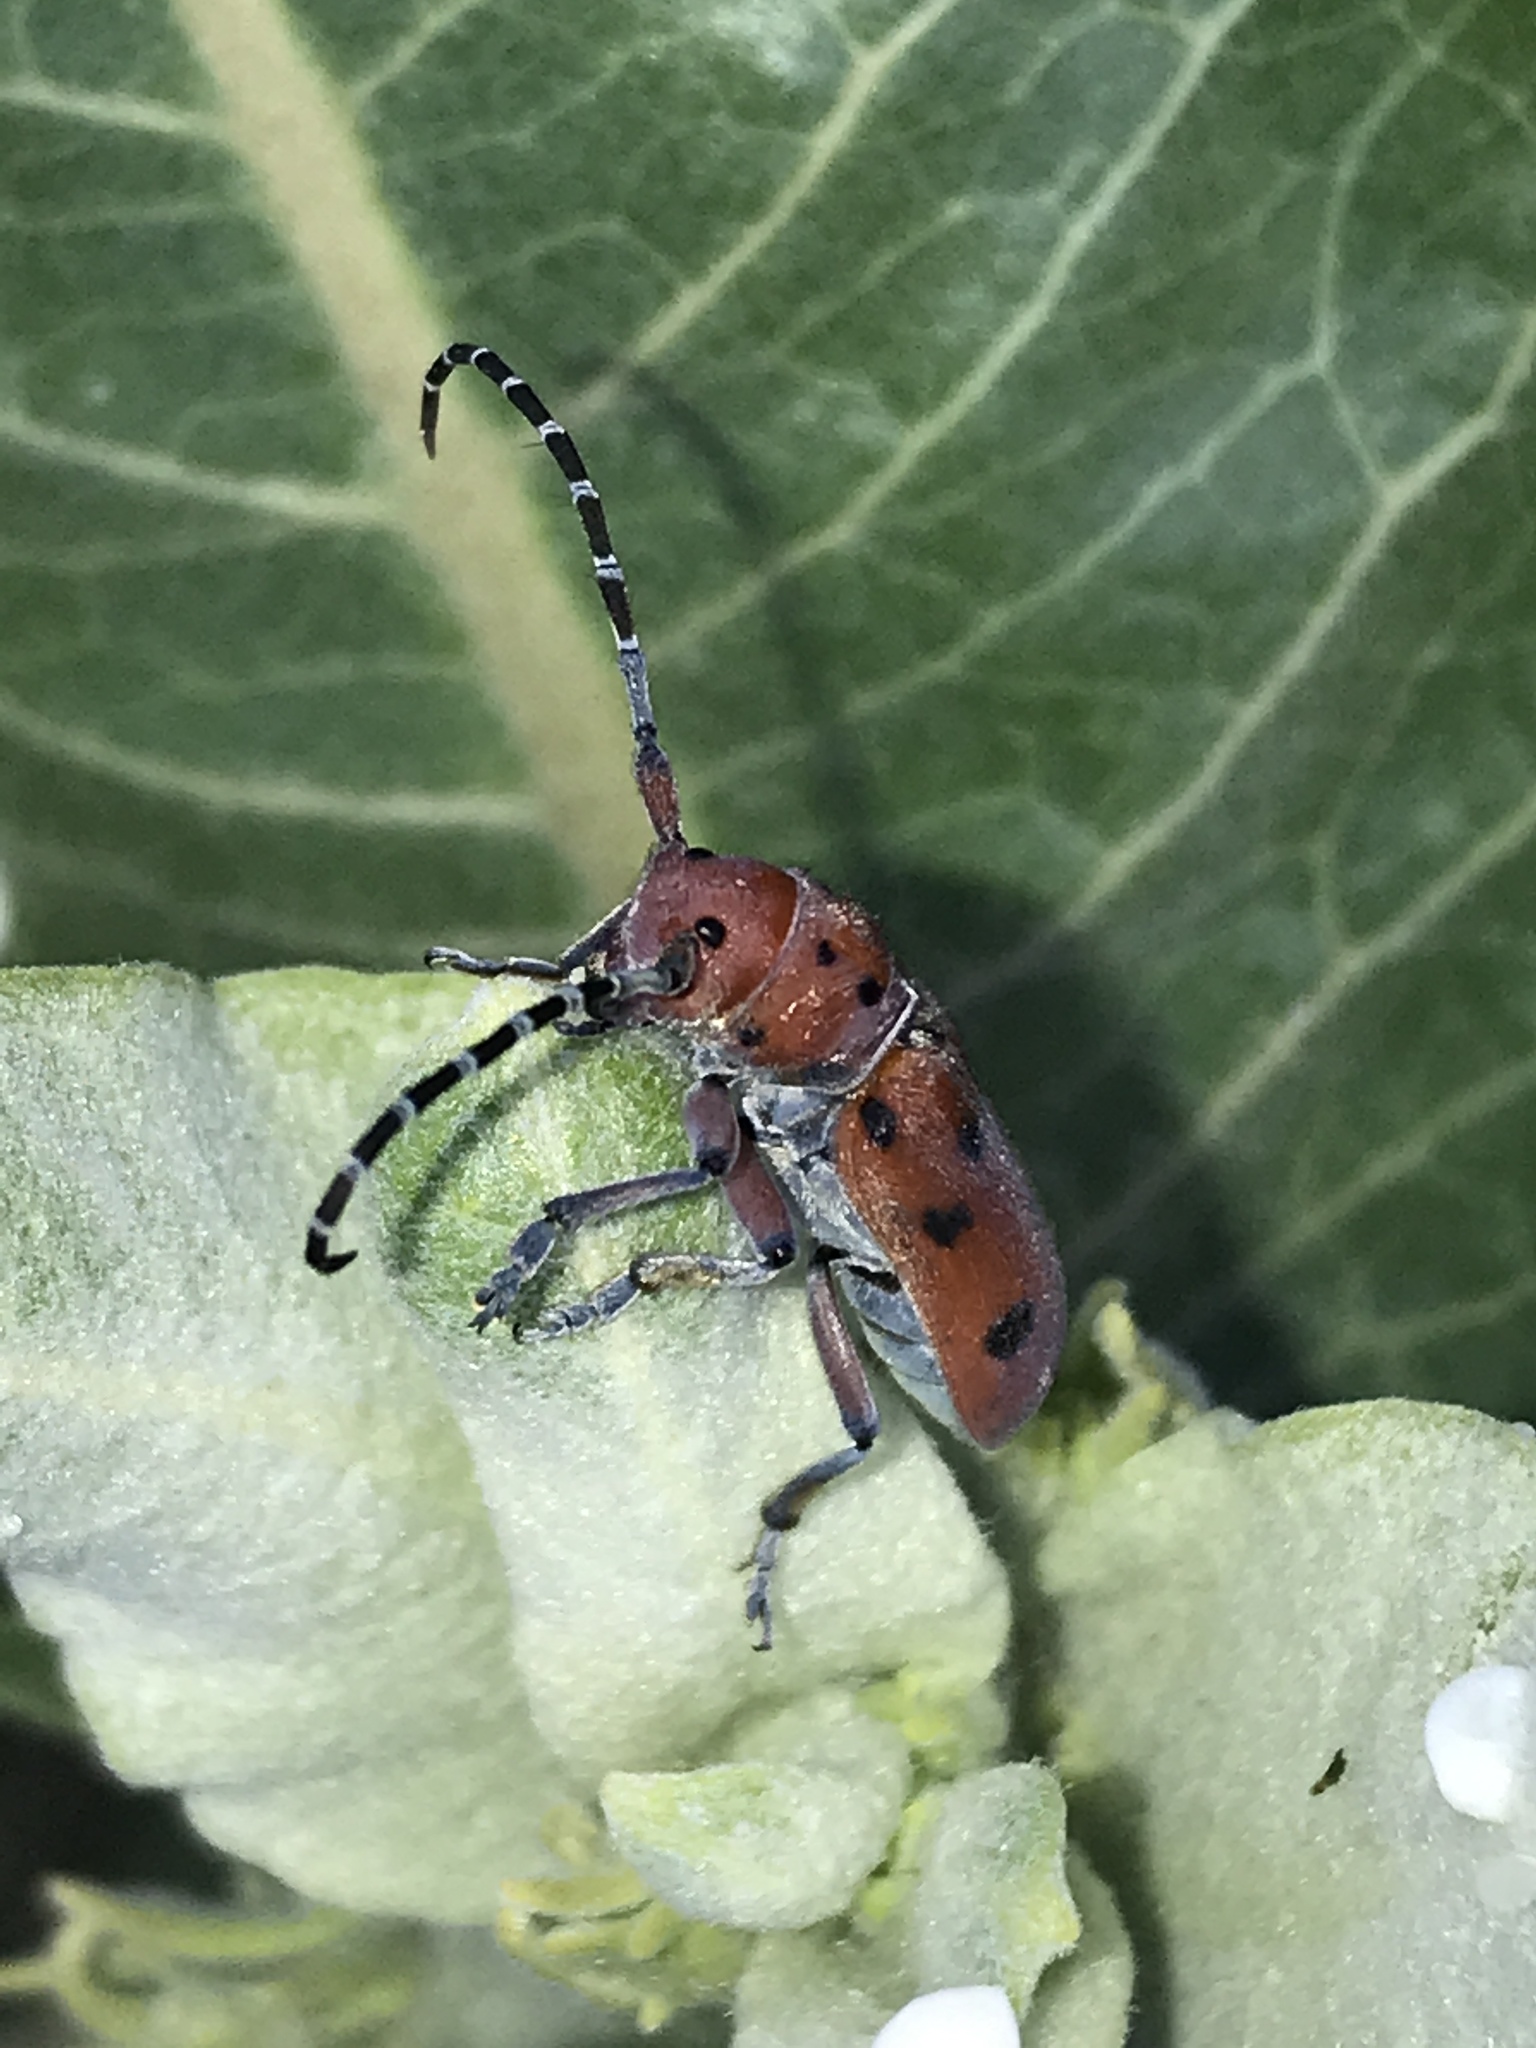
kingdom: Animalia
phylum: Arthropoda
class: Insecta
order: Coleoptera
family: Cerambycidae
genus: Tetraopes
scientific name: Tetraopes femoratus
